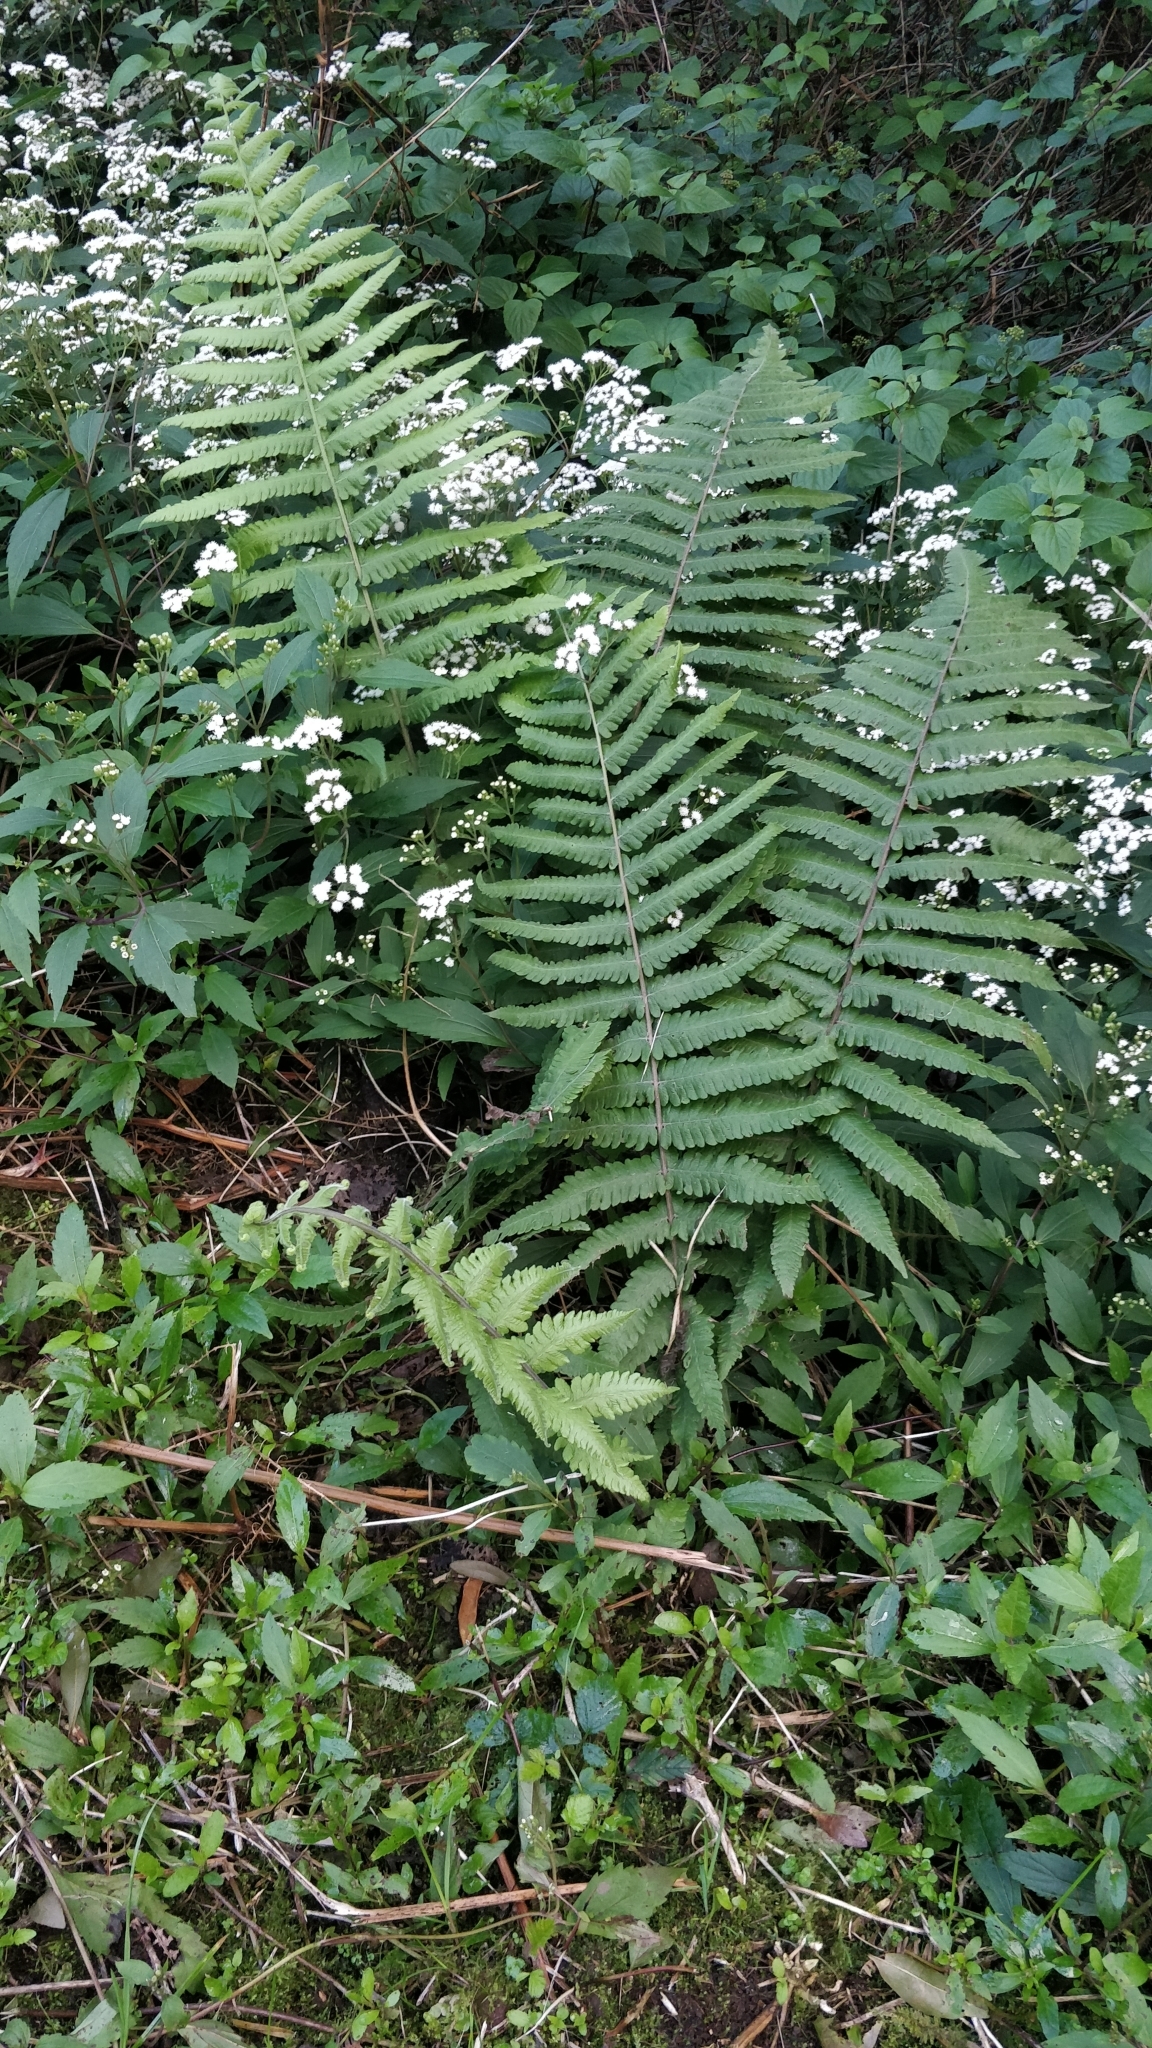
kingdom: Plantae
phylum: Tracheophyta
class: Polypodiopsida
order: Polypodiales
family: Thelypteridaceae
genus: Christella
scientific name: Christella dentata
